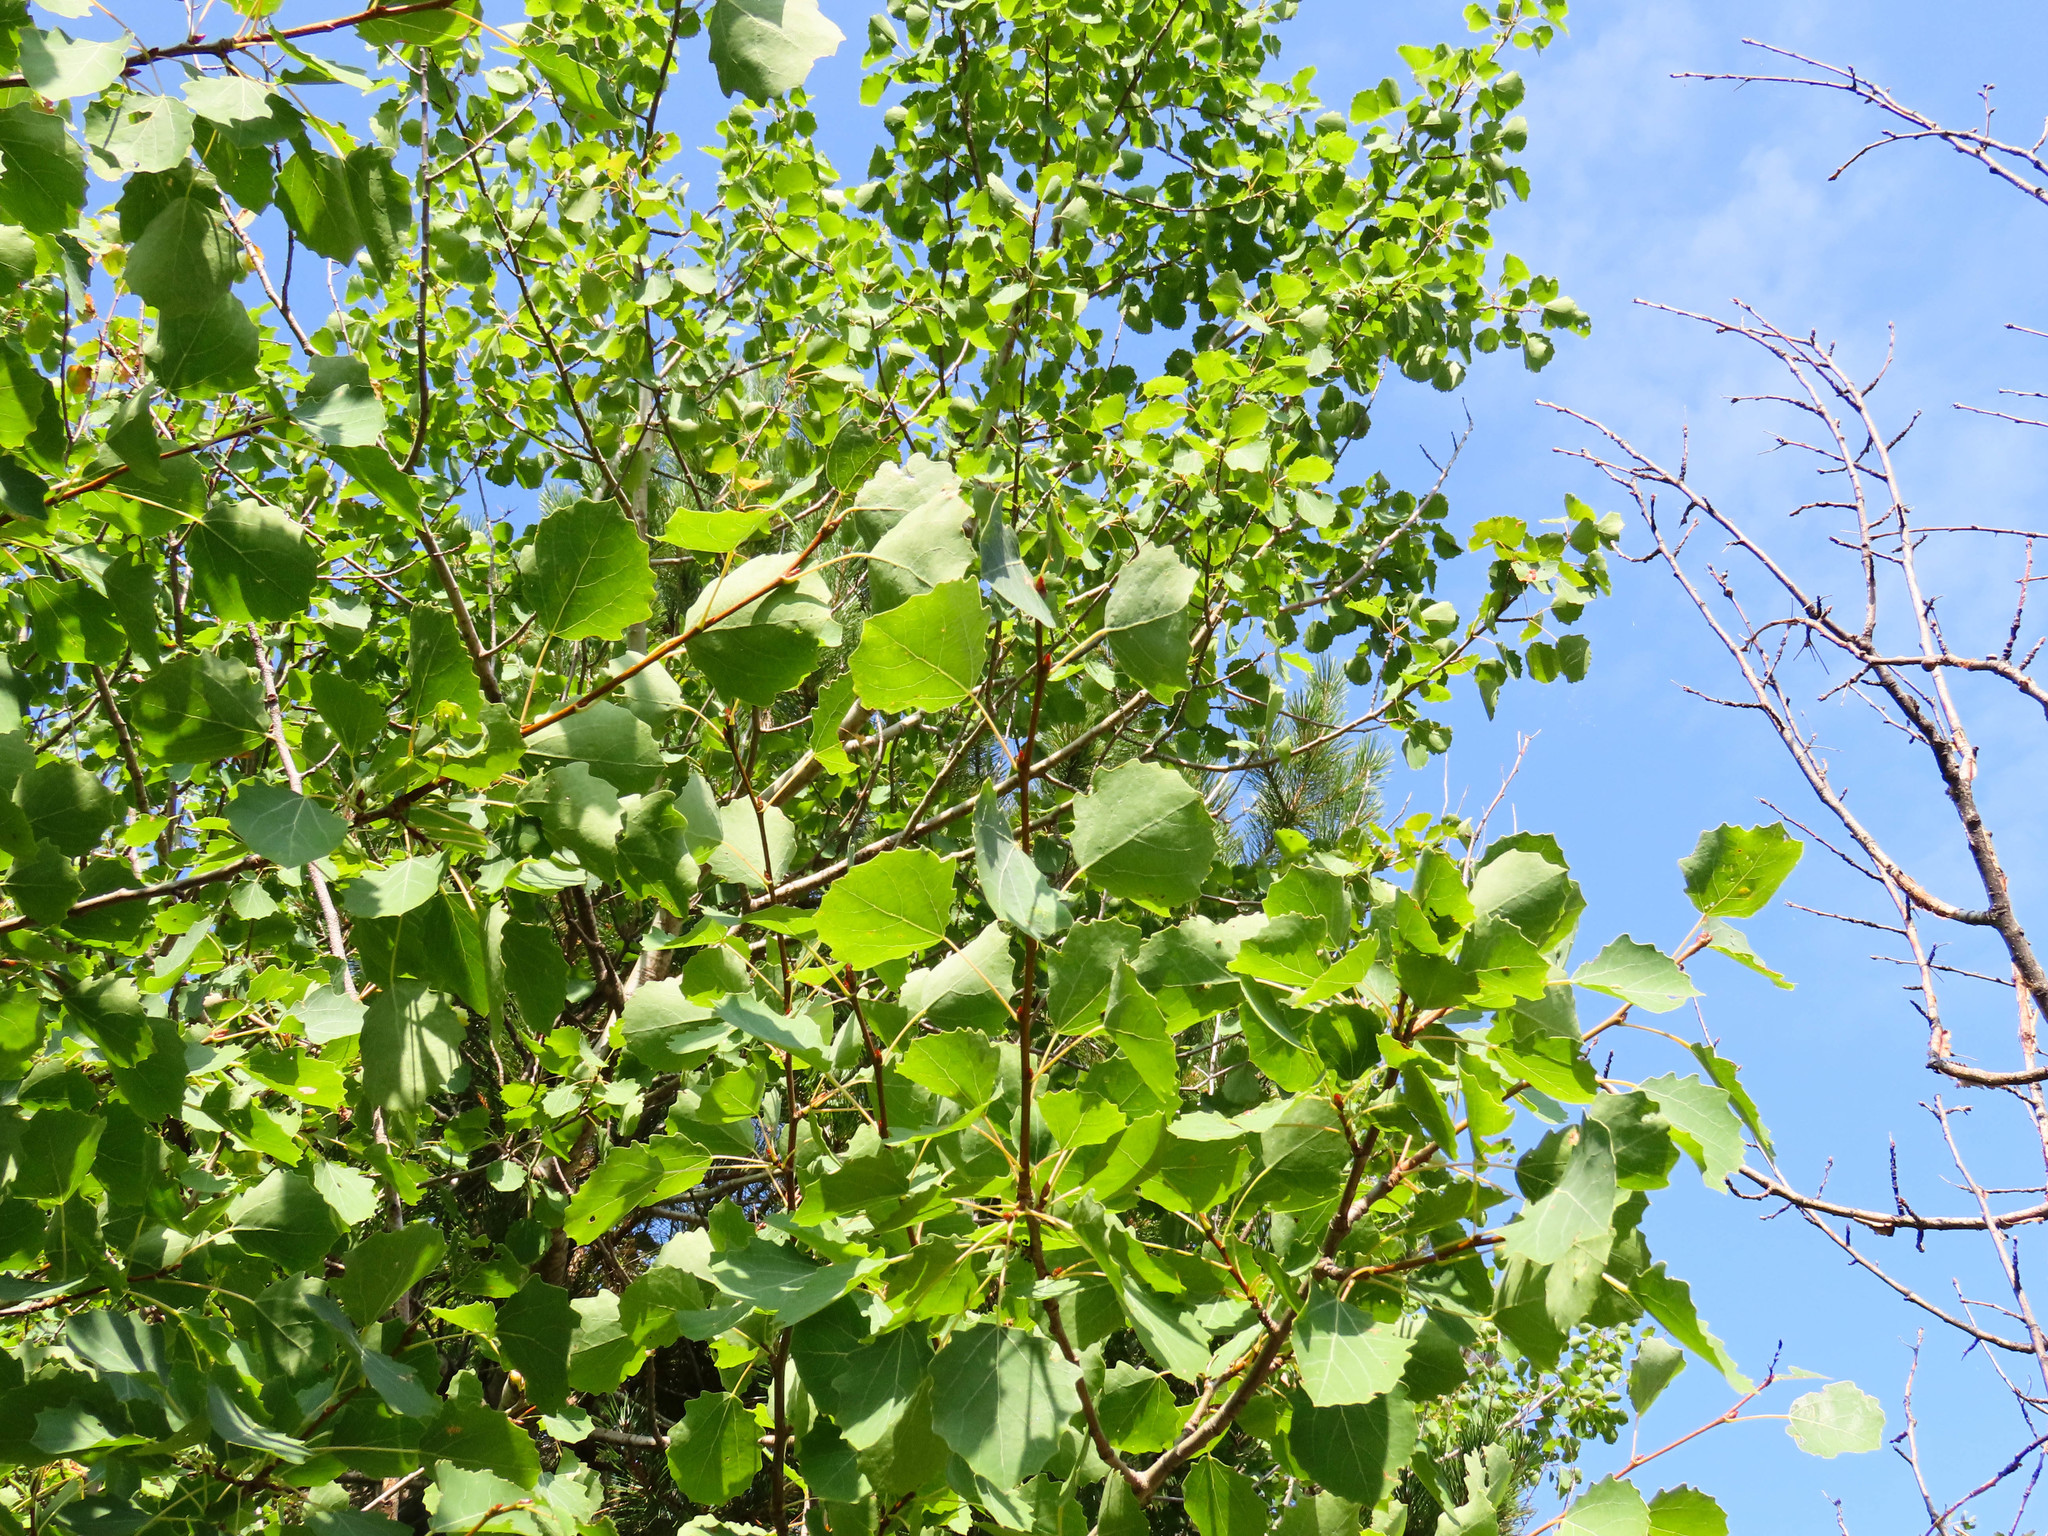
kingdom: Plantae
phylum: Tracheophyta
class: Magnoliopsida
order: Malpighiales
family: Salicaceae
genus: Populus
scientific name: Populus tremula
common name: European aspen
